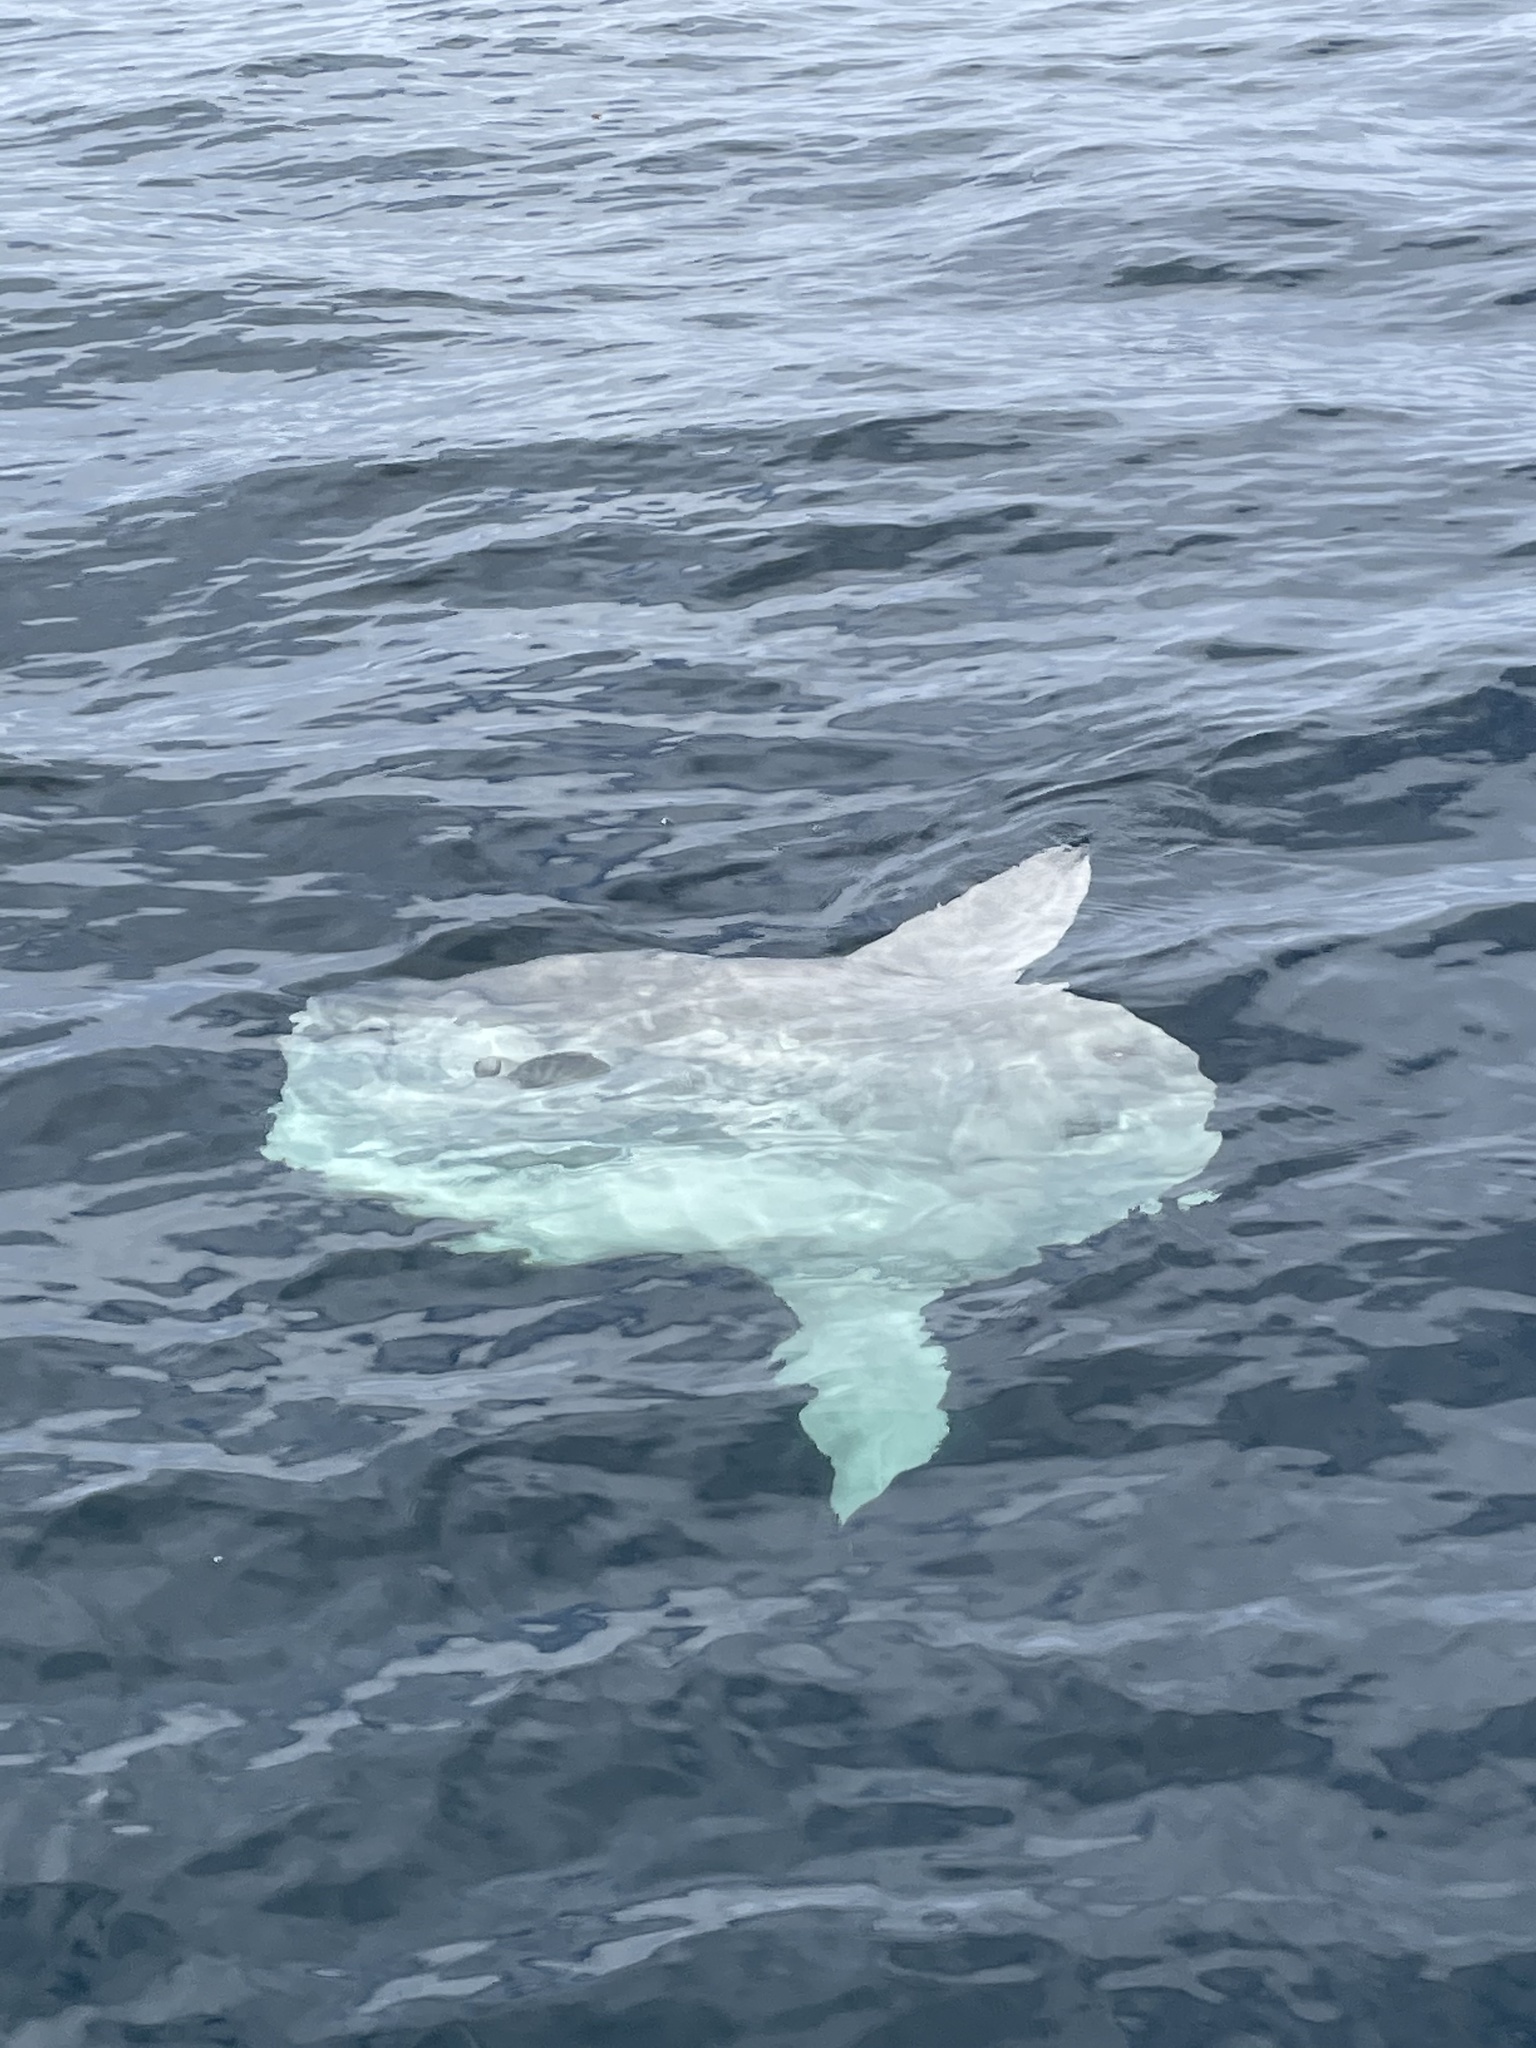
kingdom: Animalia
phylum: Chordata
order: Tetraodontiformes
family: Molidae
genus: Mola
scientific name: Mola mola
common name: Ocean sunfish
